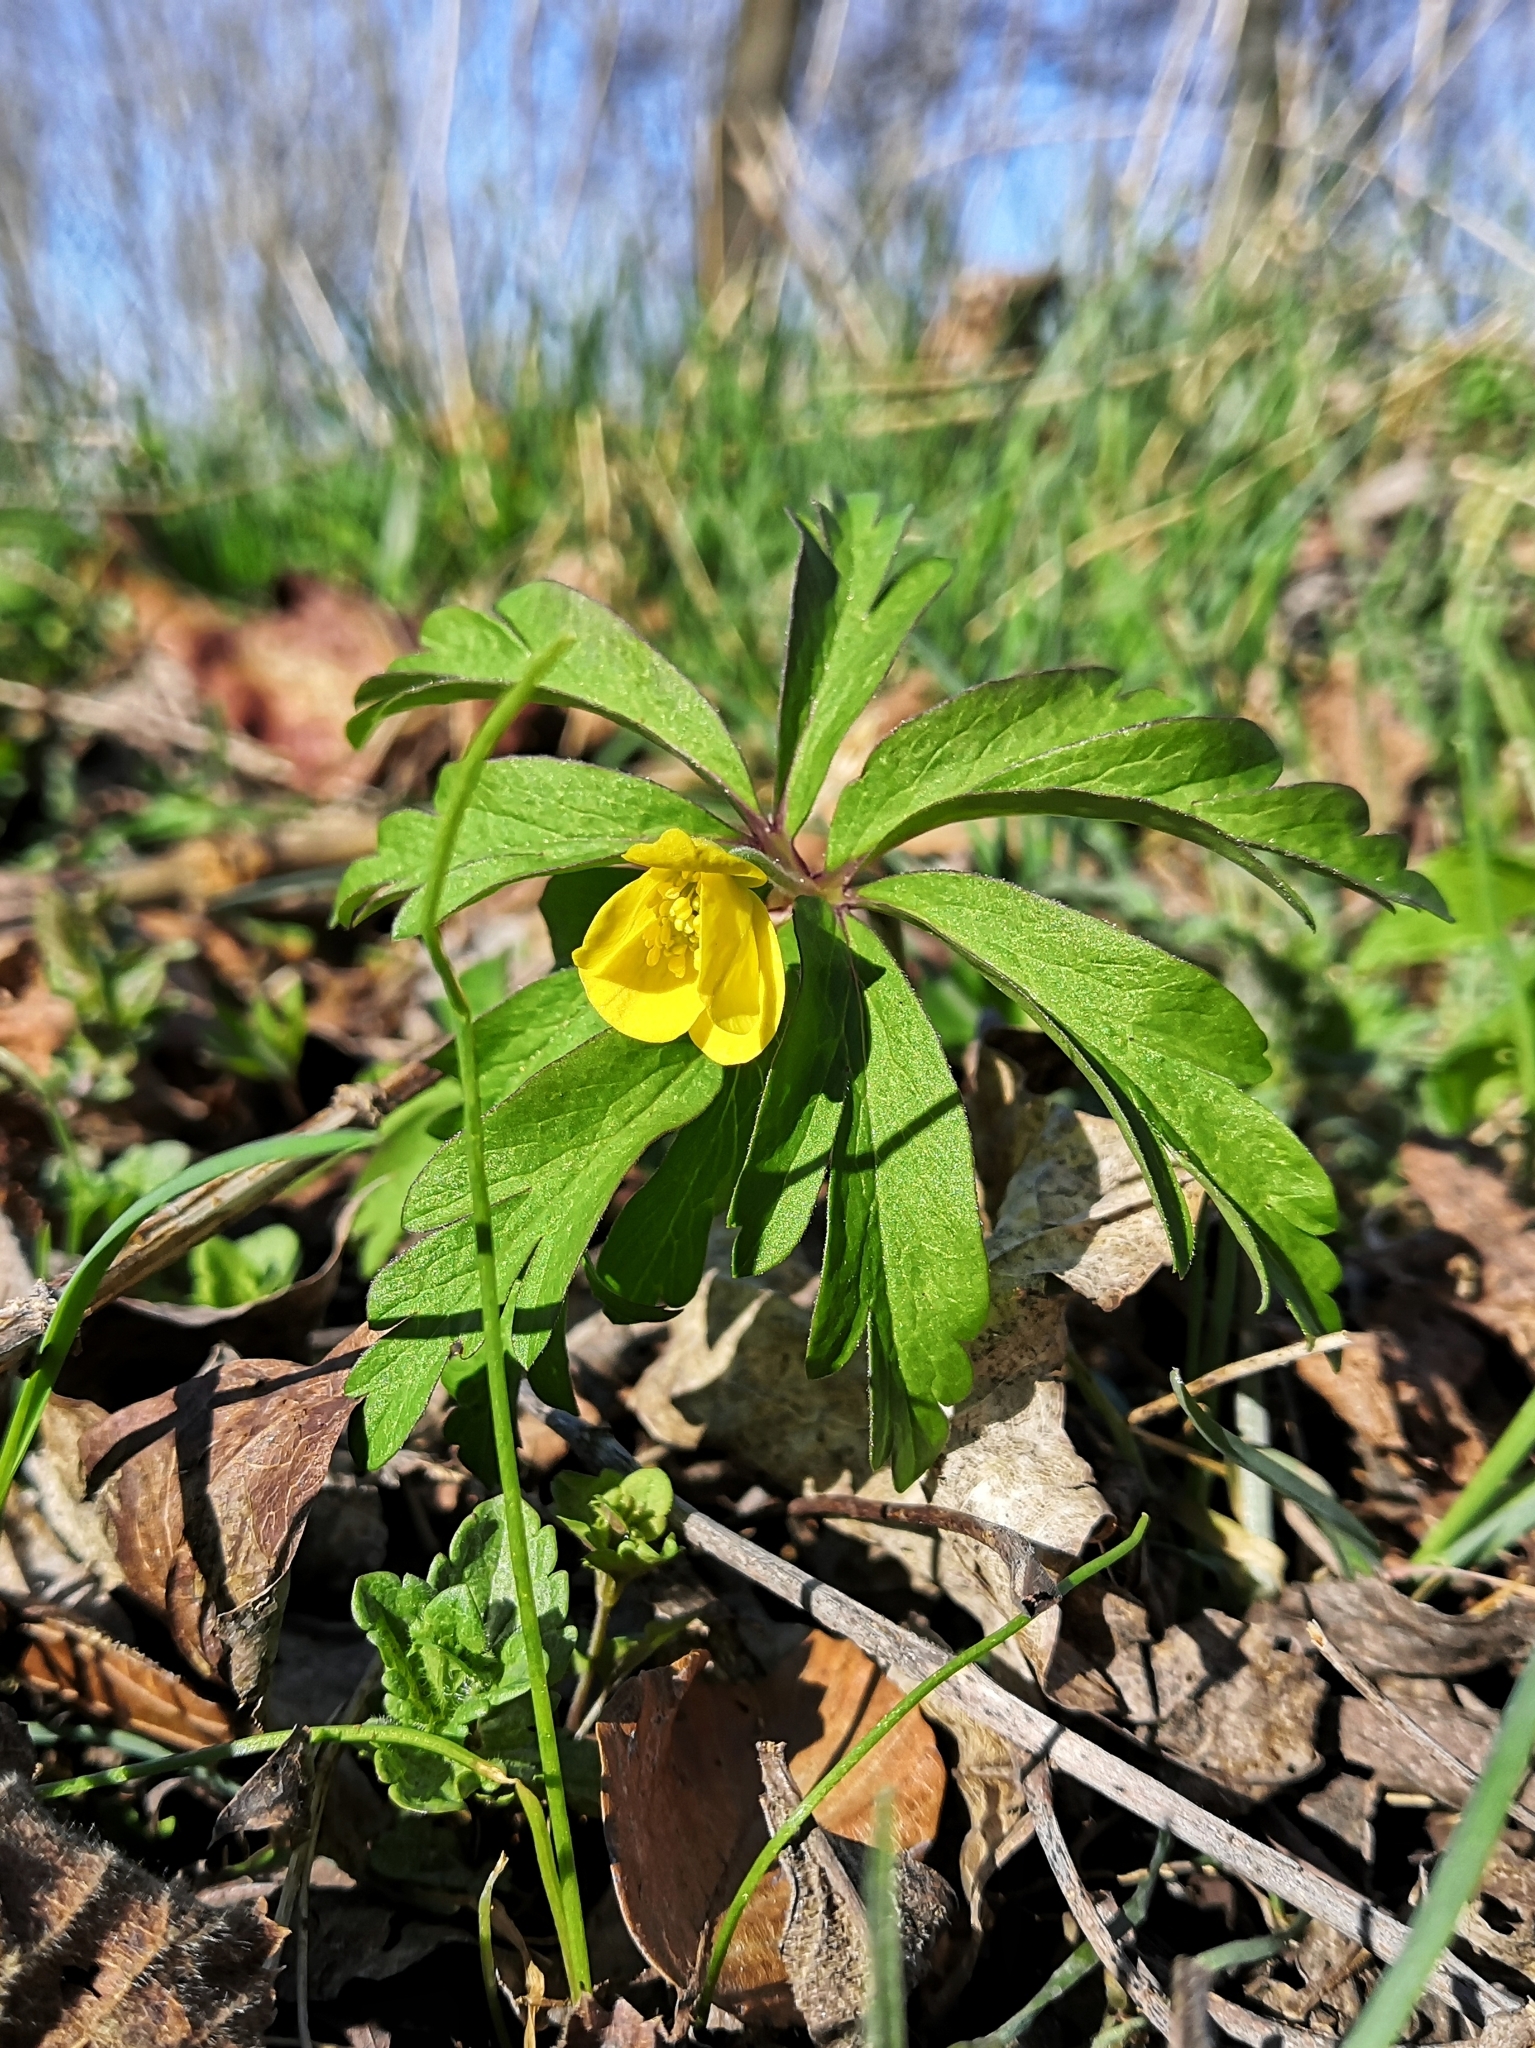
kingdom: Plantae
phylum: Tracheophyta
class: Magnoliopsida
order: Ranunculales
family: Ranunculaceae
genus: Anemone
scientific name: Anemone ranunculoides
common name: Yellow anemone
